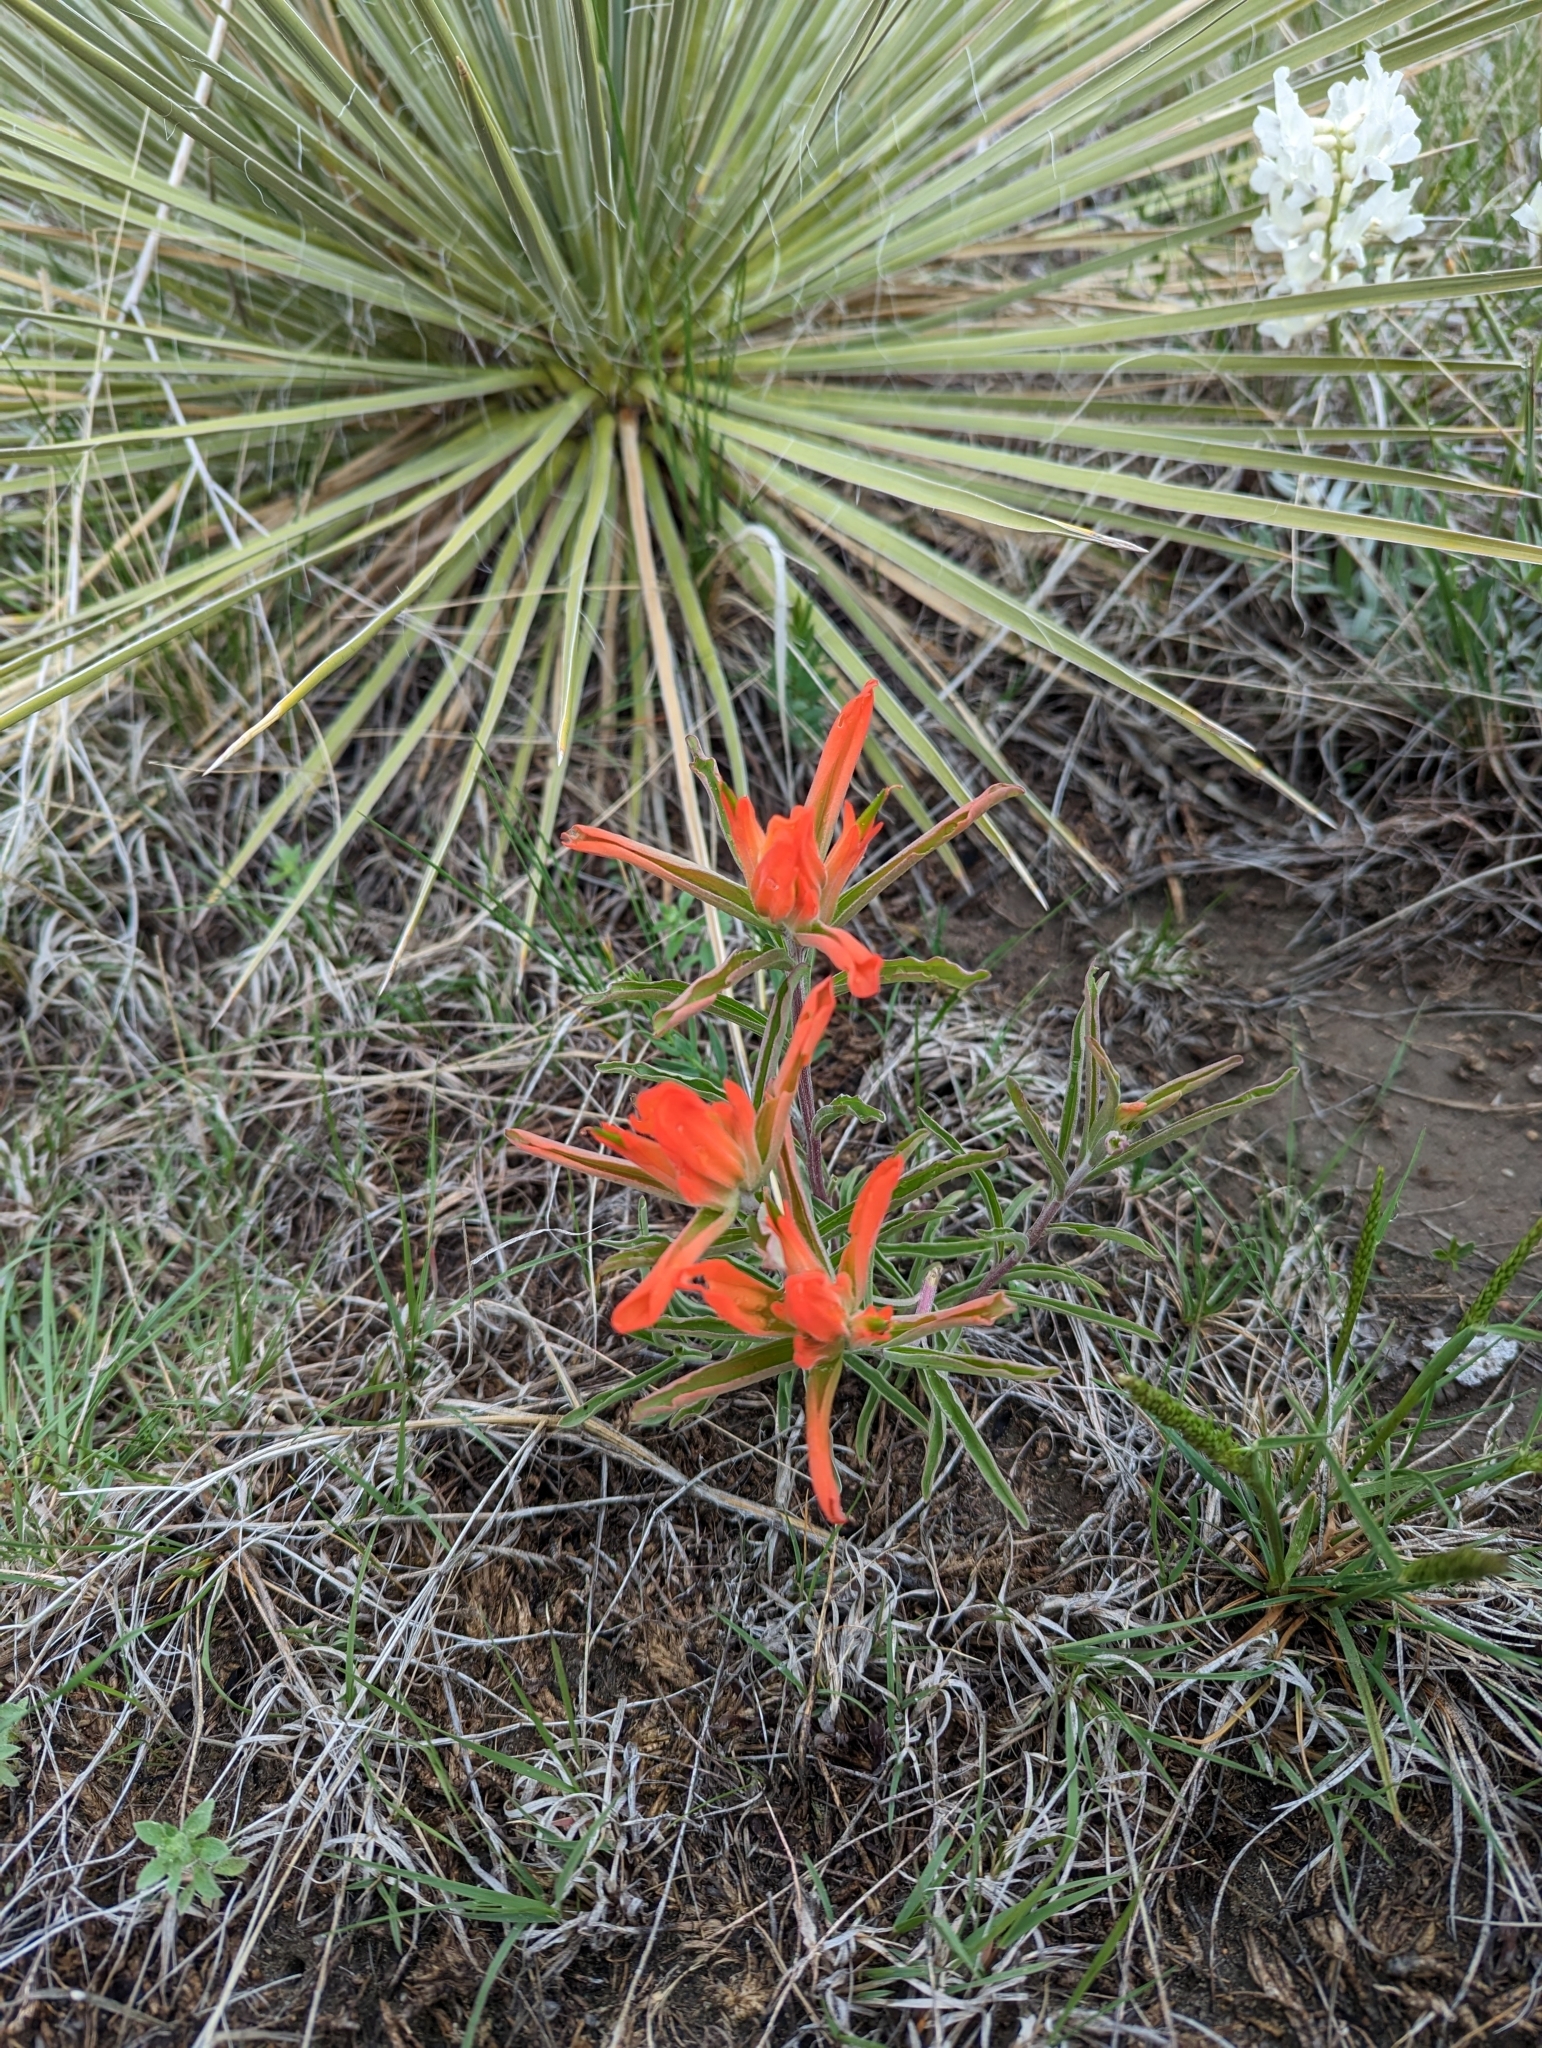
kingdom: Plantae
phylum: Tracheophyta
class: Magnoliopsida
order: Lamiales
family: Orobanchaceae
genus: Castilleja
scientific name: Castilleja integra
